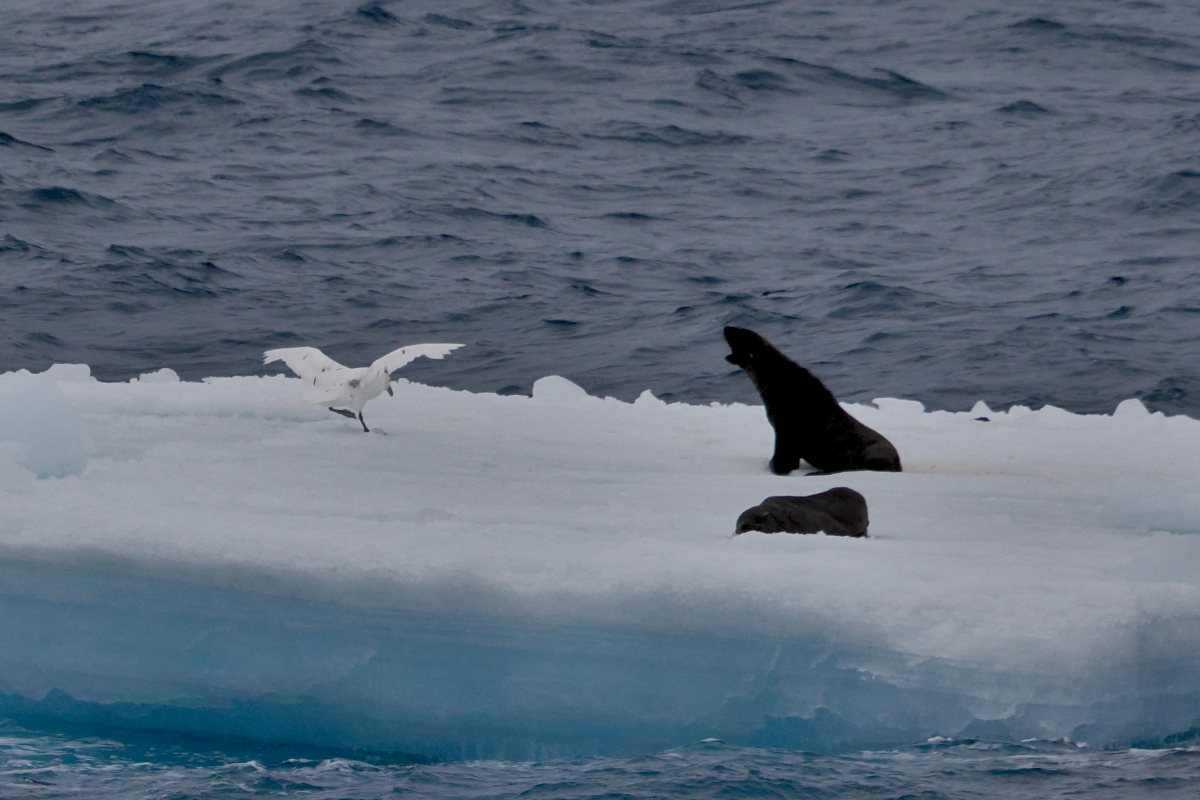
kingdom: Animalia
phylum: Chordata
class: Aves
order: Procellariiformes
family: Procellariidae
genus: Macronectes
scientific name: Macronectes giganteus
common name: Southern giant petrel
